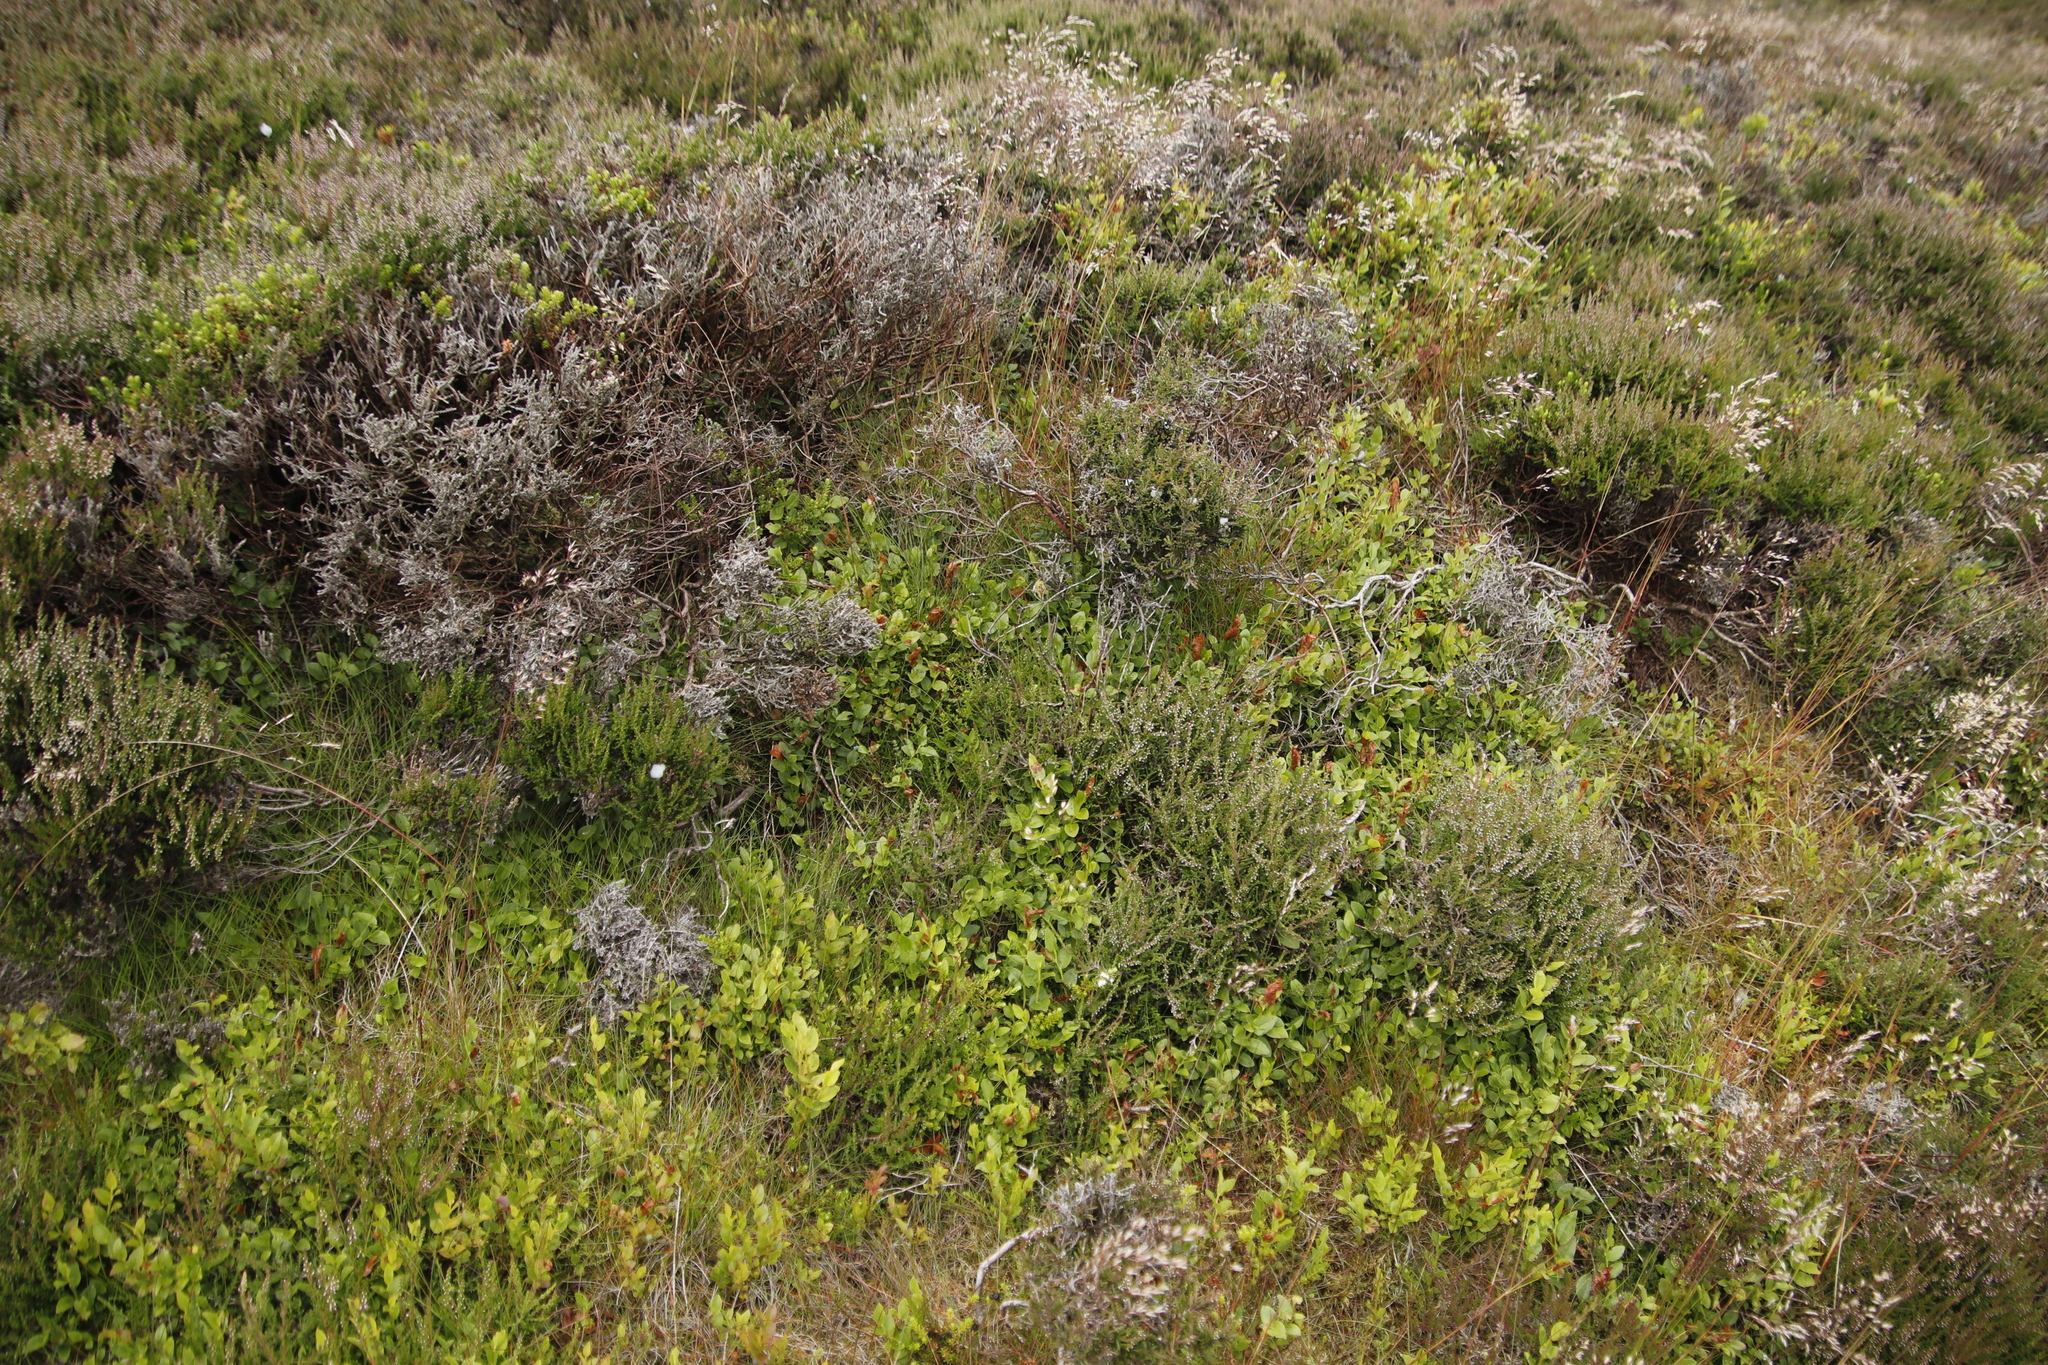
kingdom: Plantae
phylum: Tracheophyta
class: Magnoliopsida
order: Ericales
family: Ericaceae
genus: Vaccinium
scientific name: Vaccinium myrtillus
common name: Bilberry
